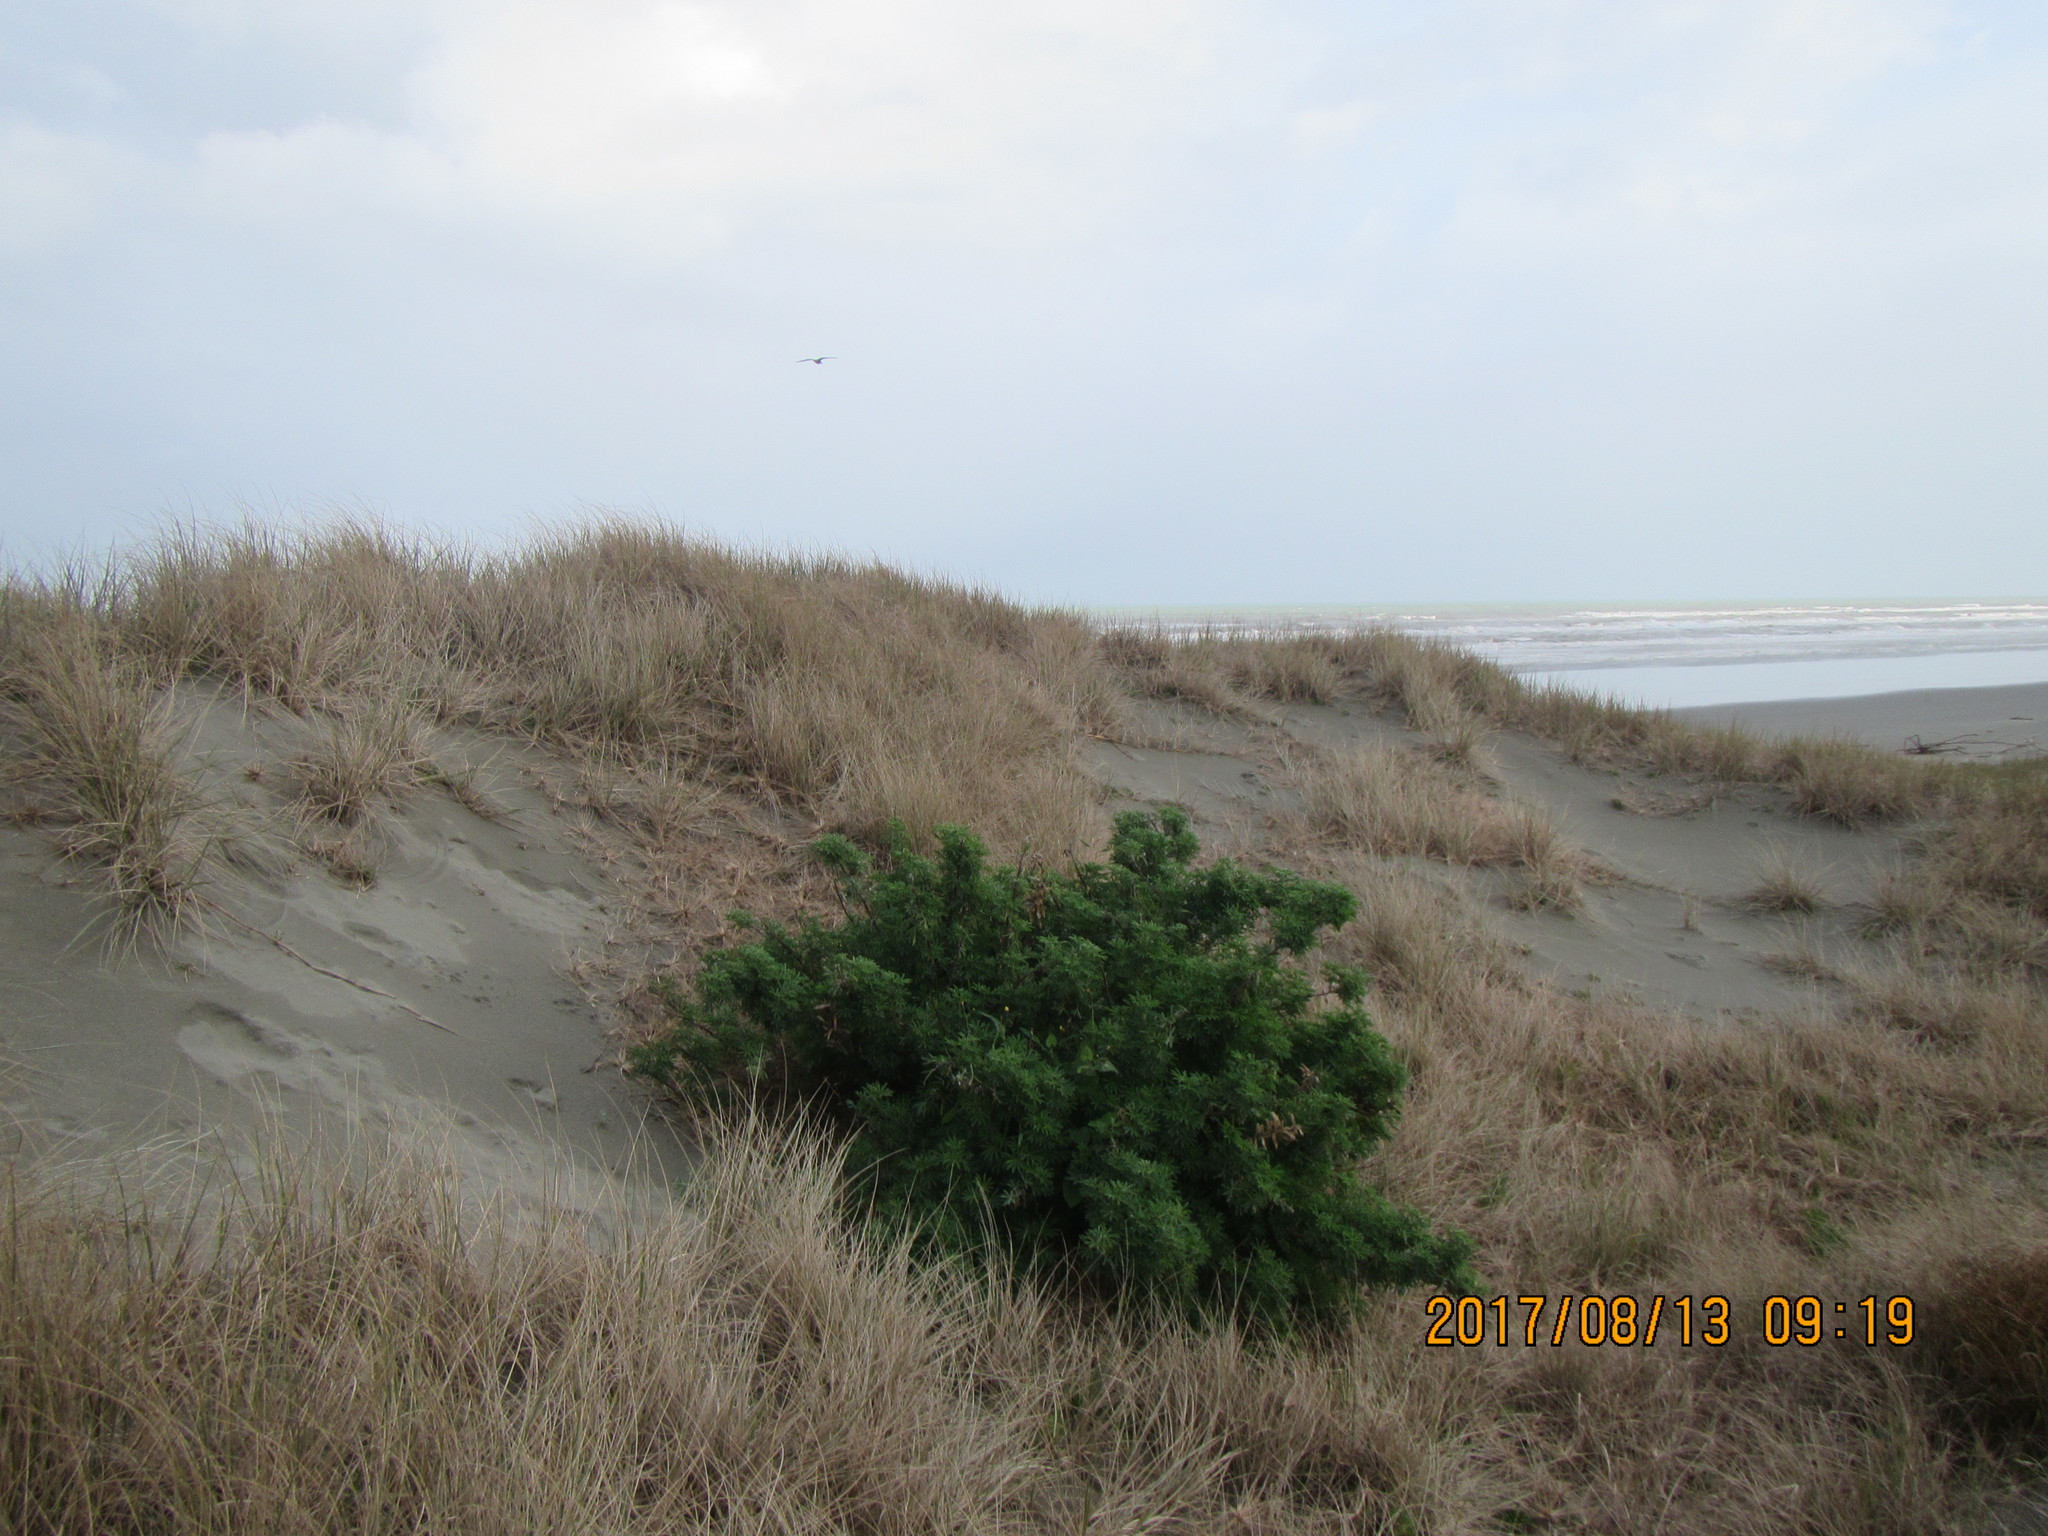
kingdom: Plantae
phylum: Tracheophyta
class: Magnoliopsida
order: Fabales
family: Fabaceae
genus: Lupinus
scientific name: Lupinus arboreus
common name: Yellow bush lupine
